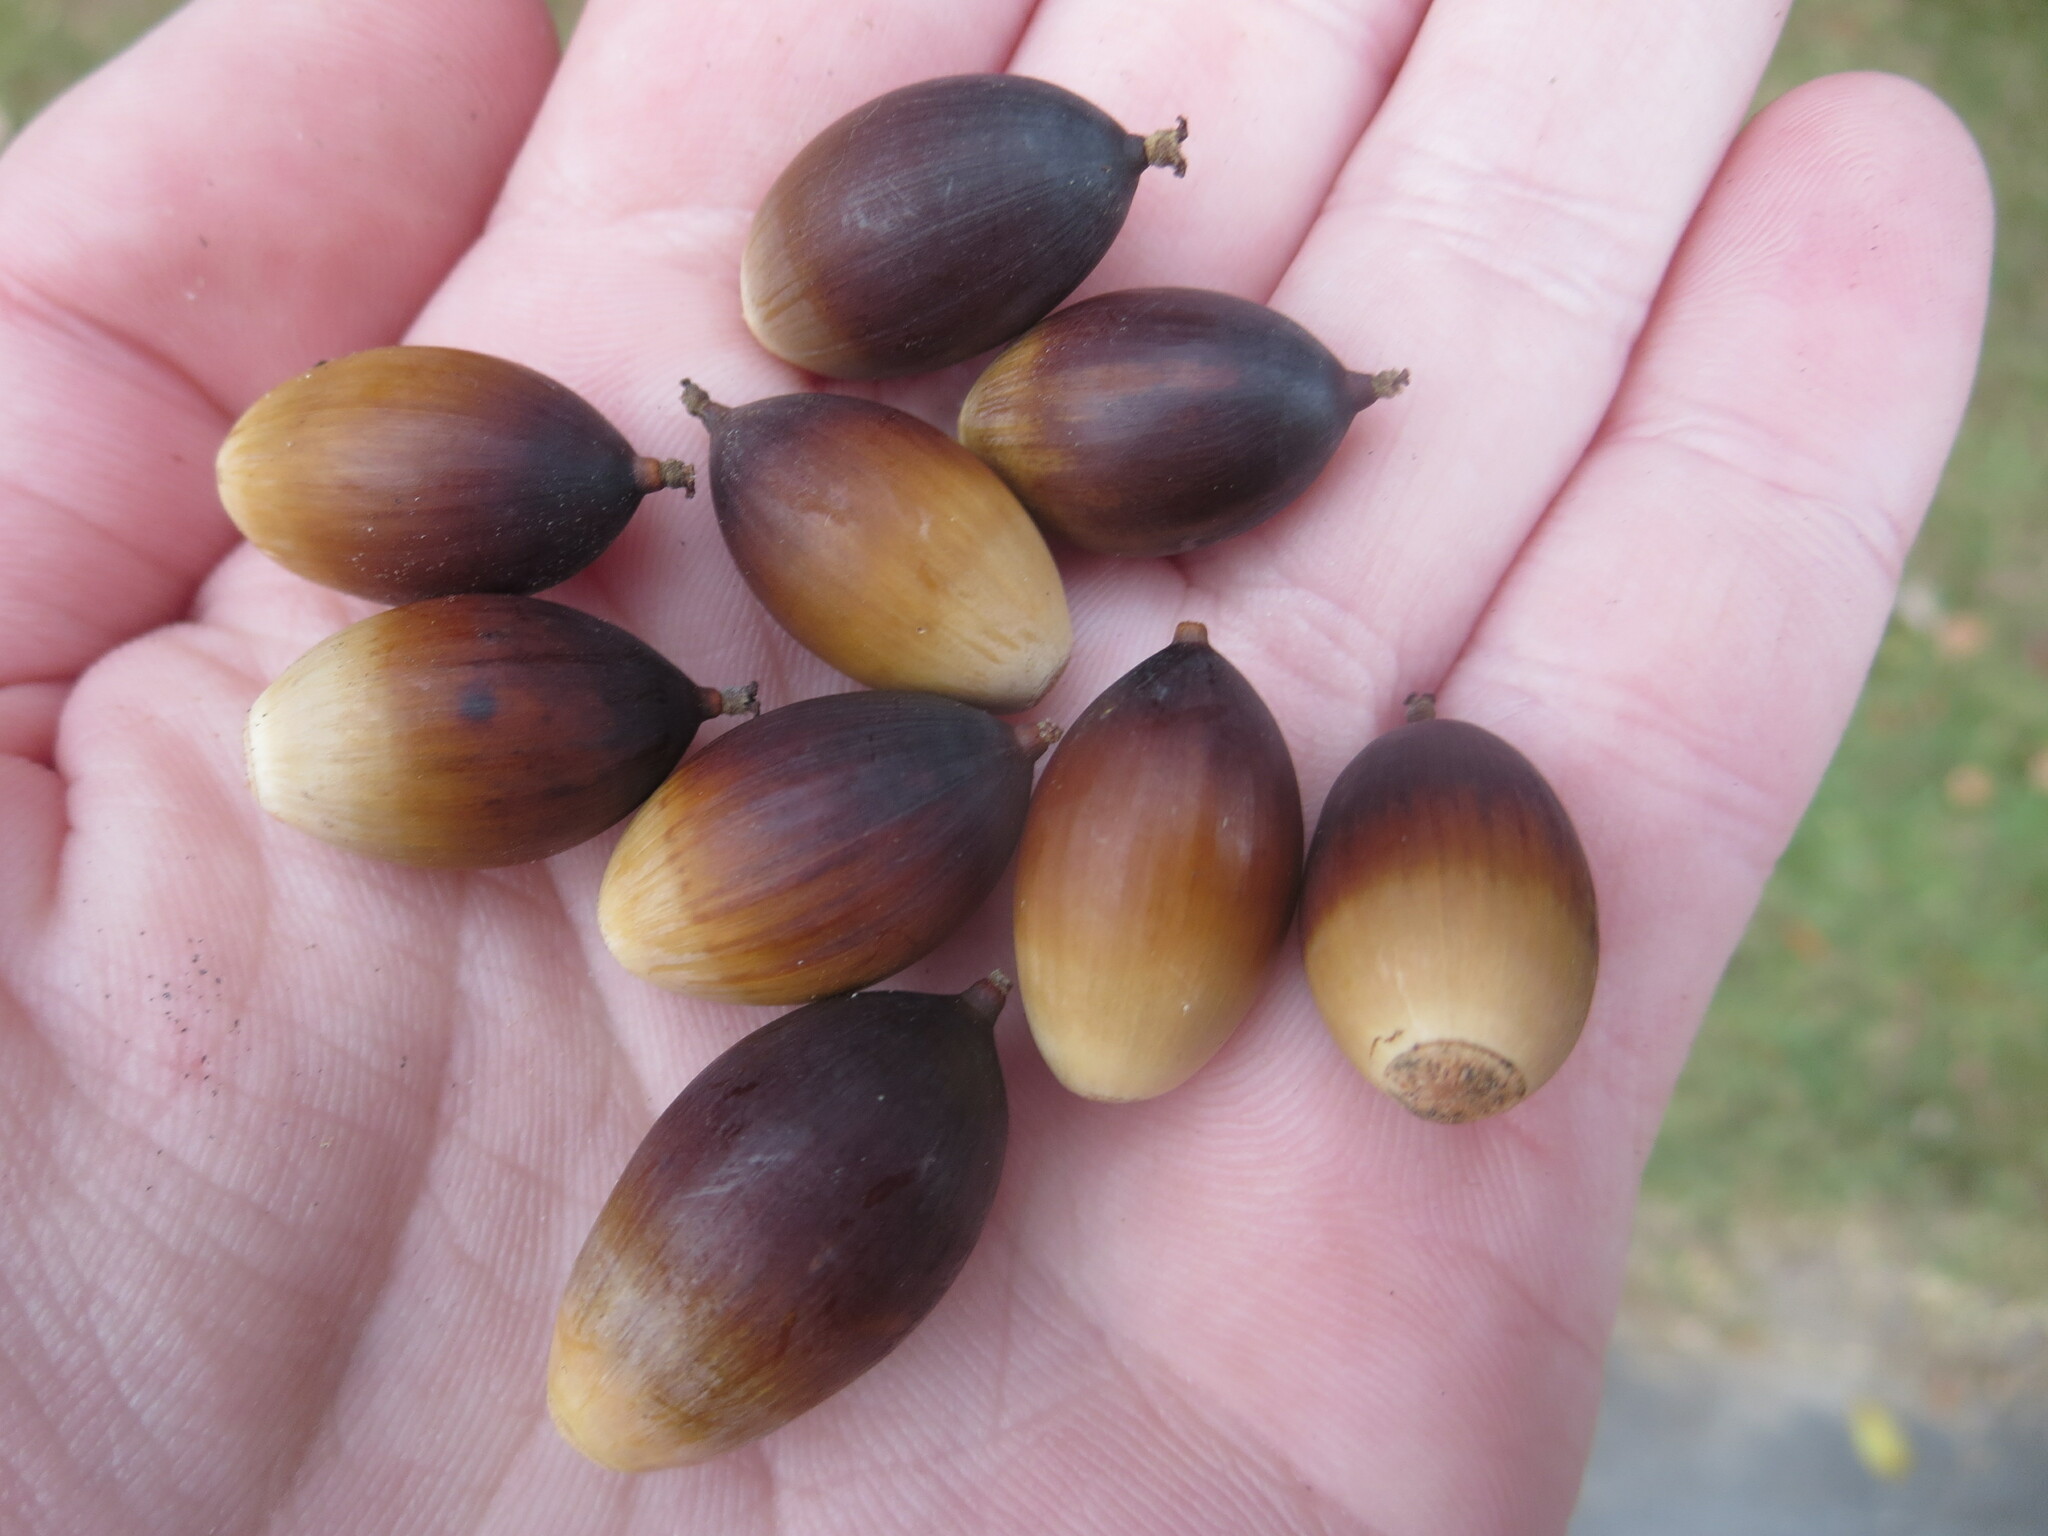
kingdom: Plantae
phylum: Tracheophyta
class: Magnoliopsida
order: Fagales
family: Fagaceae
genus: Quercus
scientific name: Quercus virginiana
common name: Southern live oak
